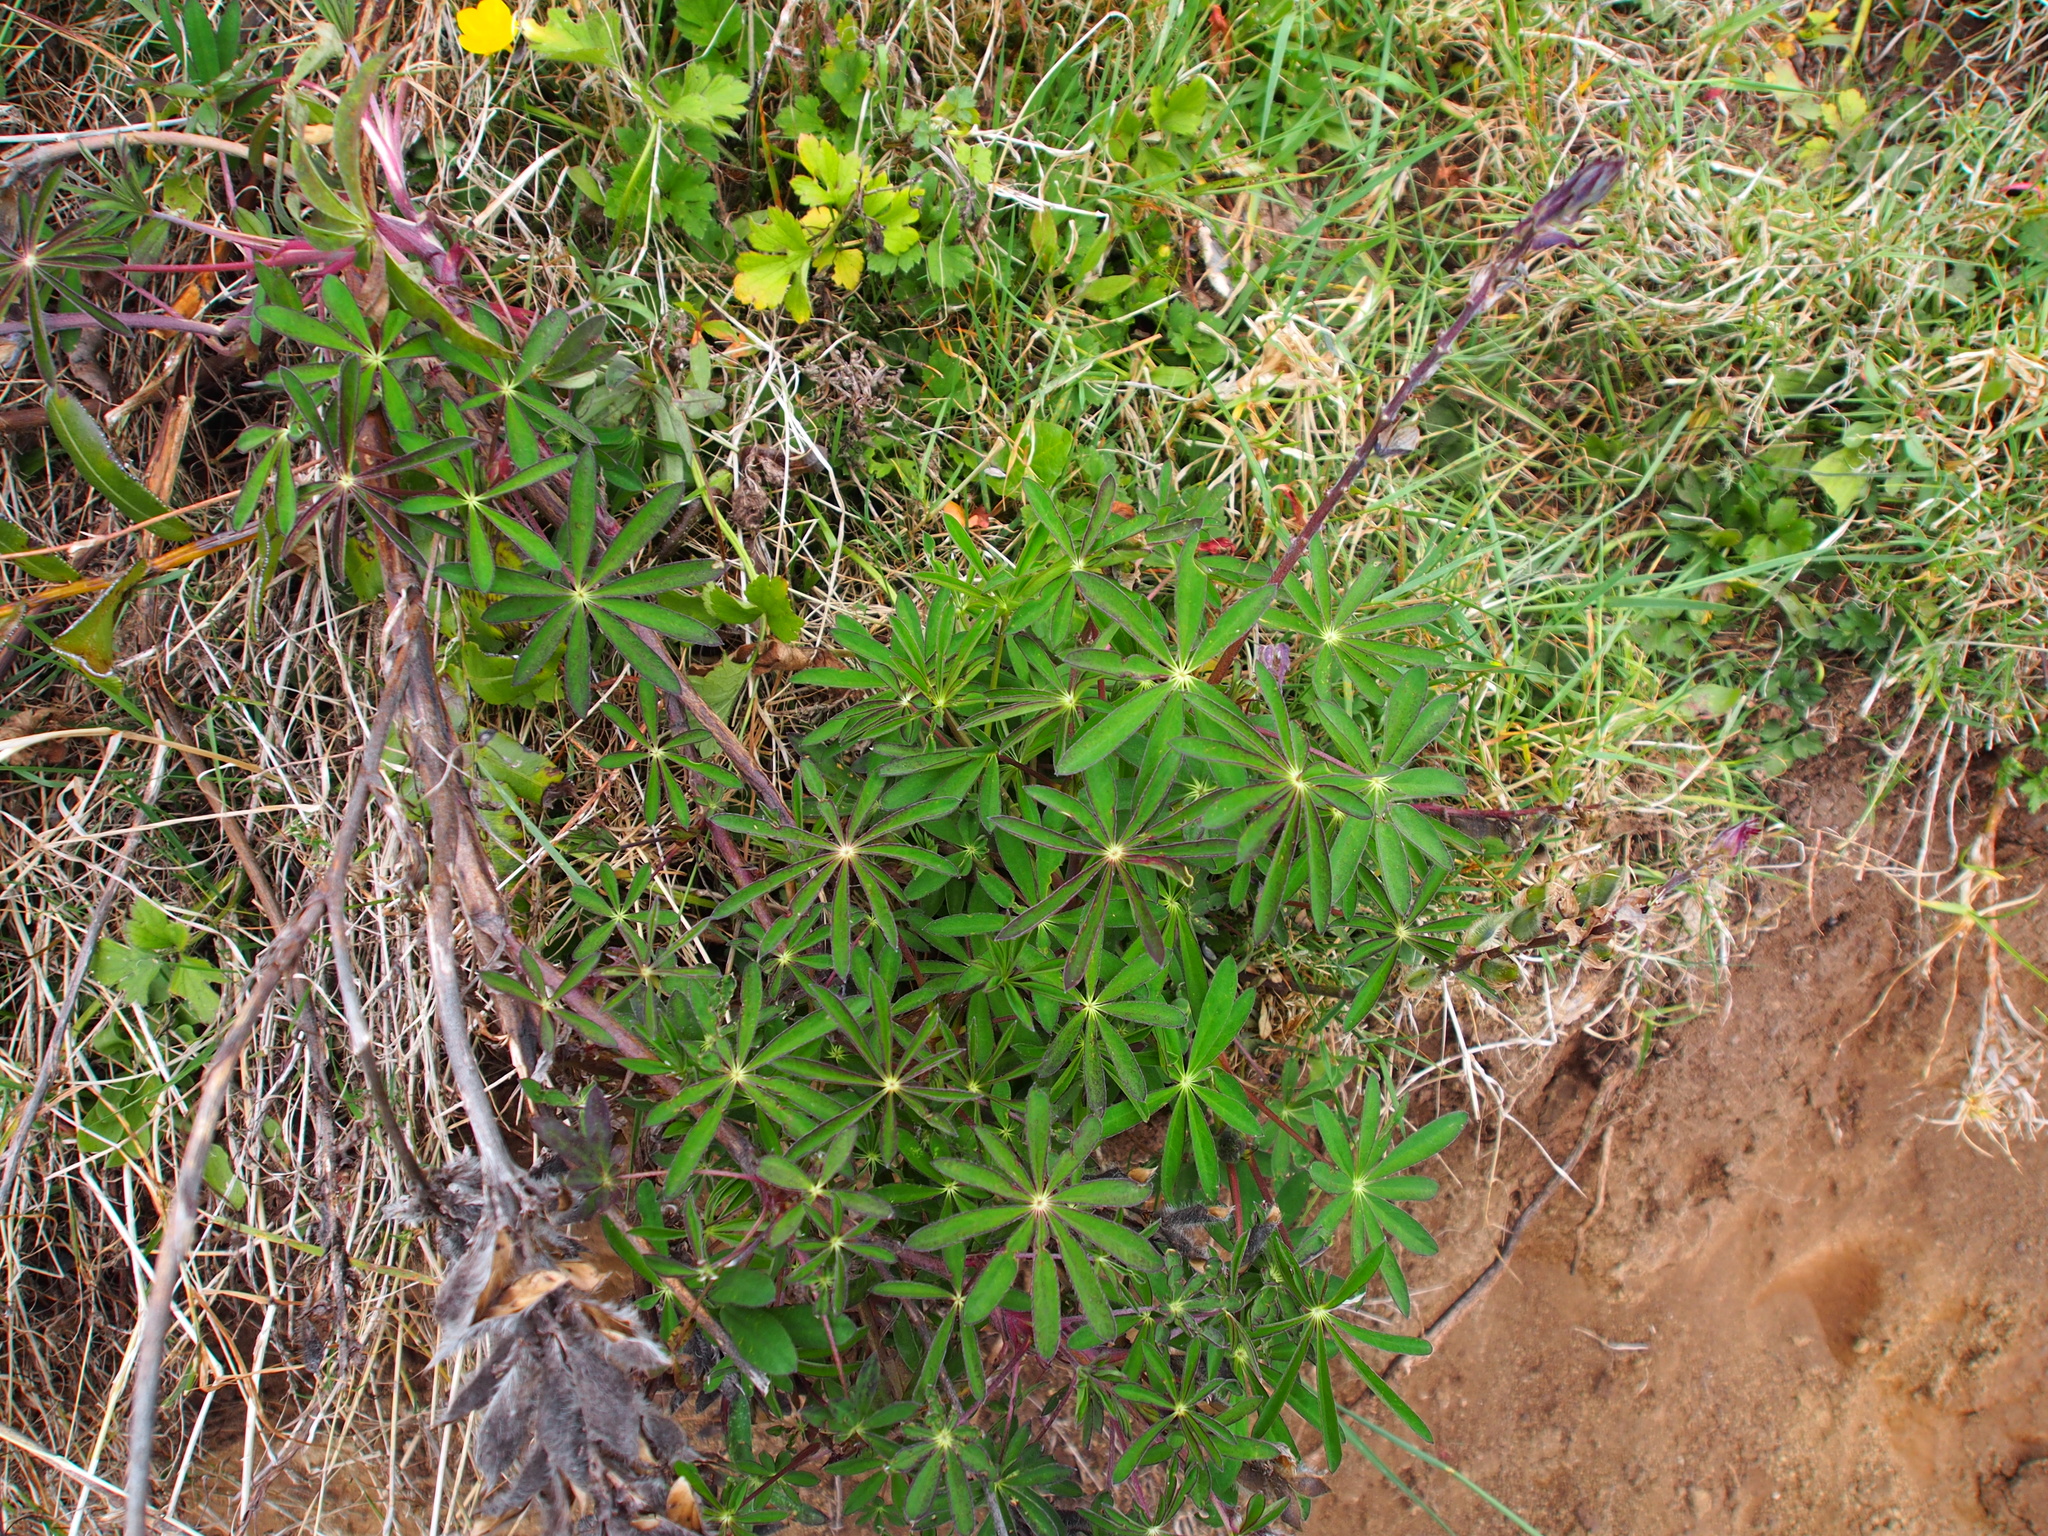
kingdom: Plantae
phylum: Tracheophyta
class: Magnoliopsida
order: Fabales
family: Fabaceae
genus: Lupinus
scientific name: Lupinus costaricensis
